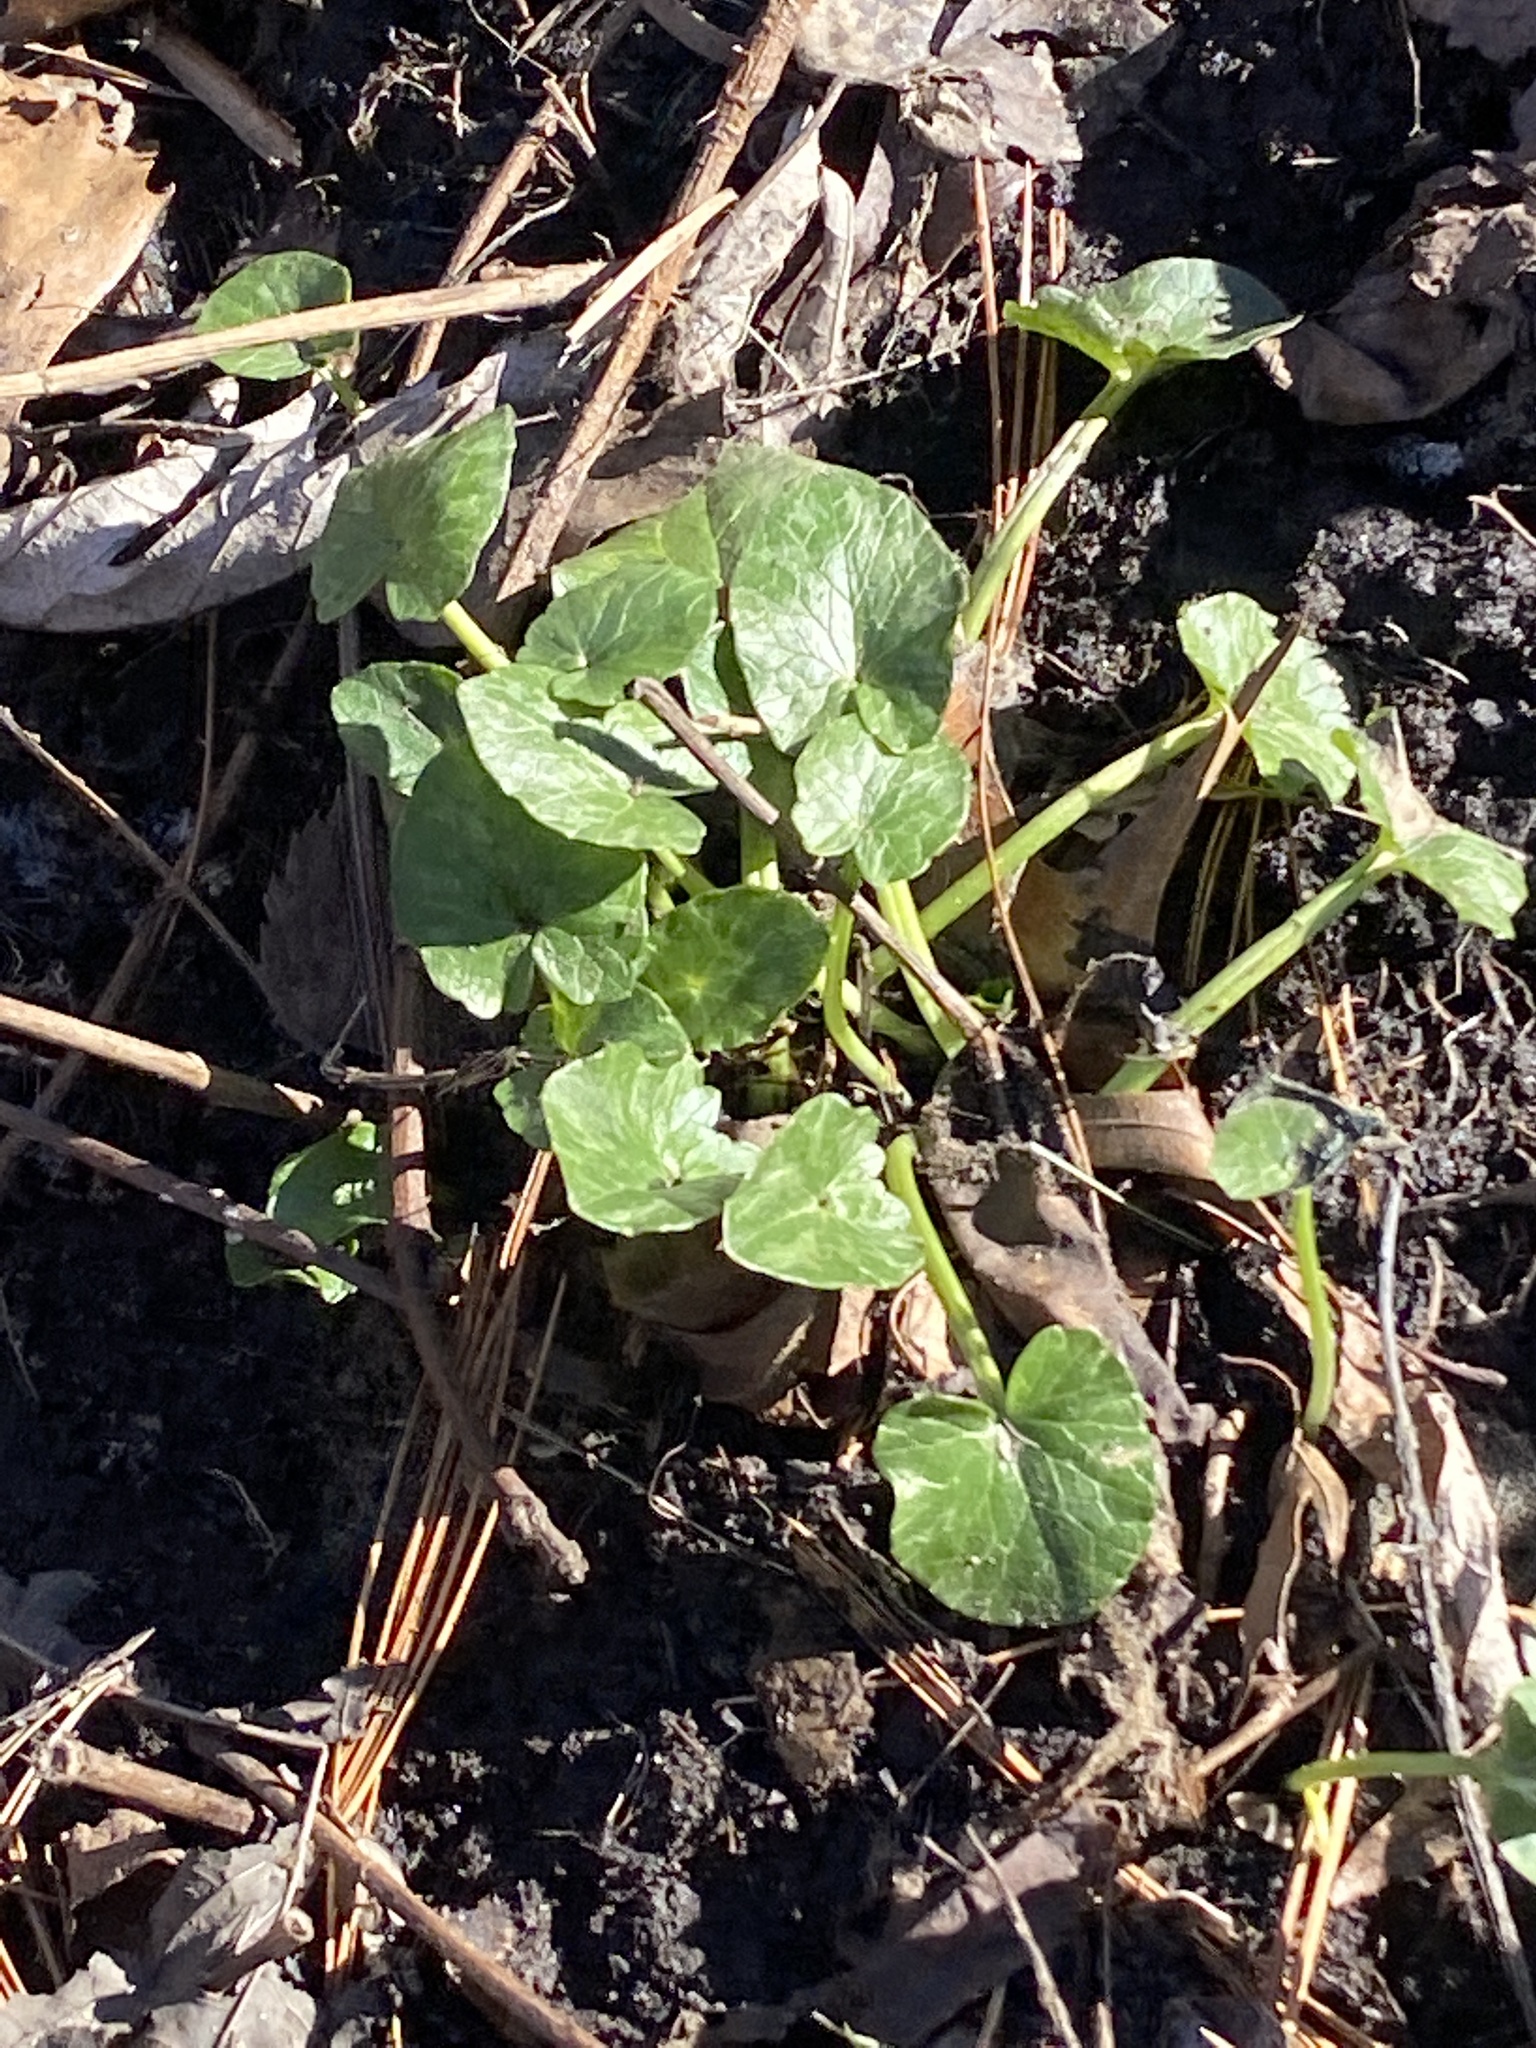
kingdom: Plantae
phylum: Tracheophyta
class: Magnoliopsida
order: Ranunculales
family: Ranunculaceae
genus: Ficaria
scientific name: Ficaria verna
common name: Lesser celandine
